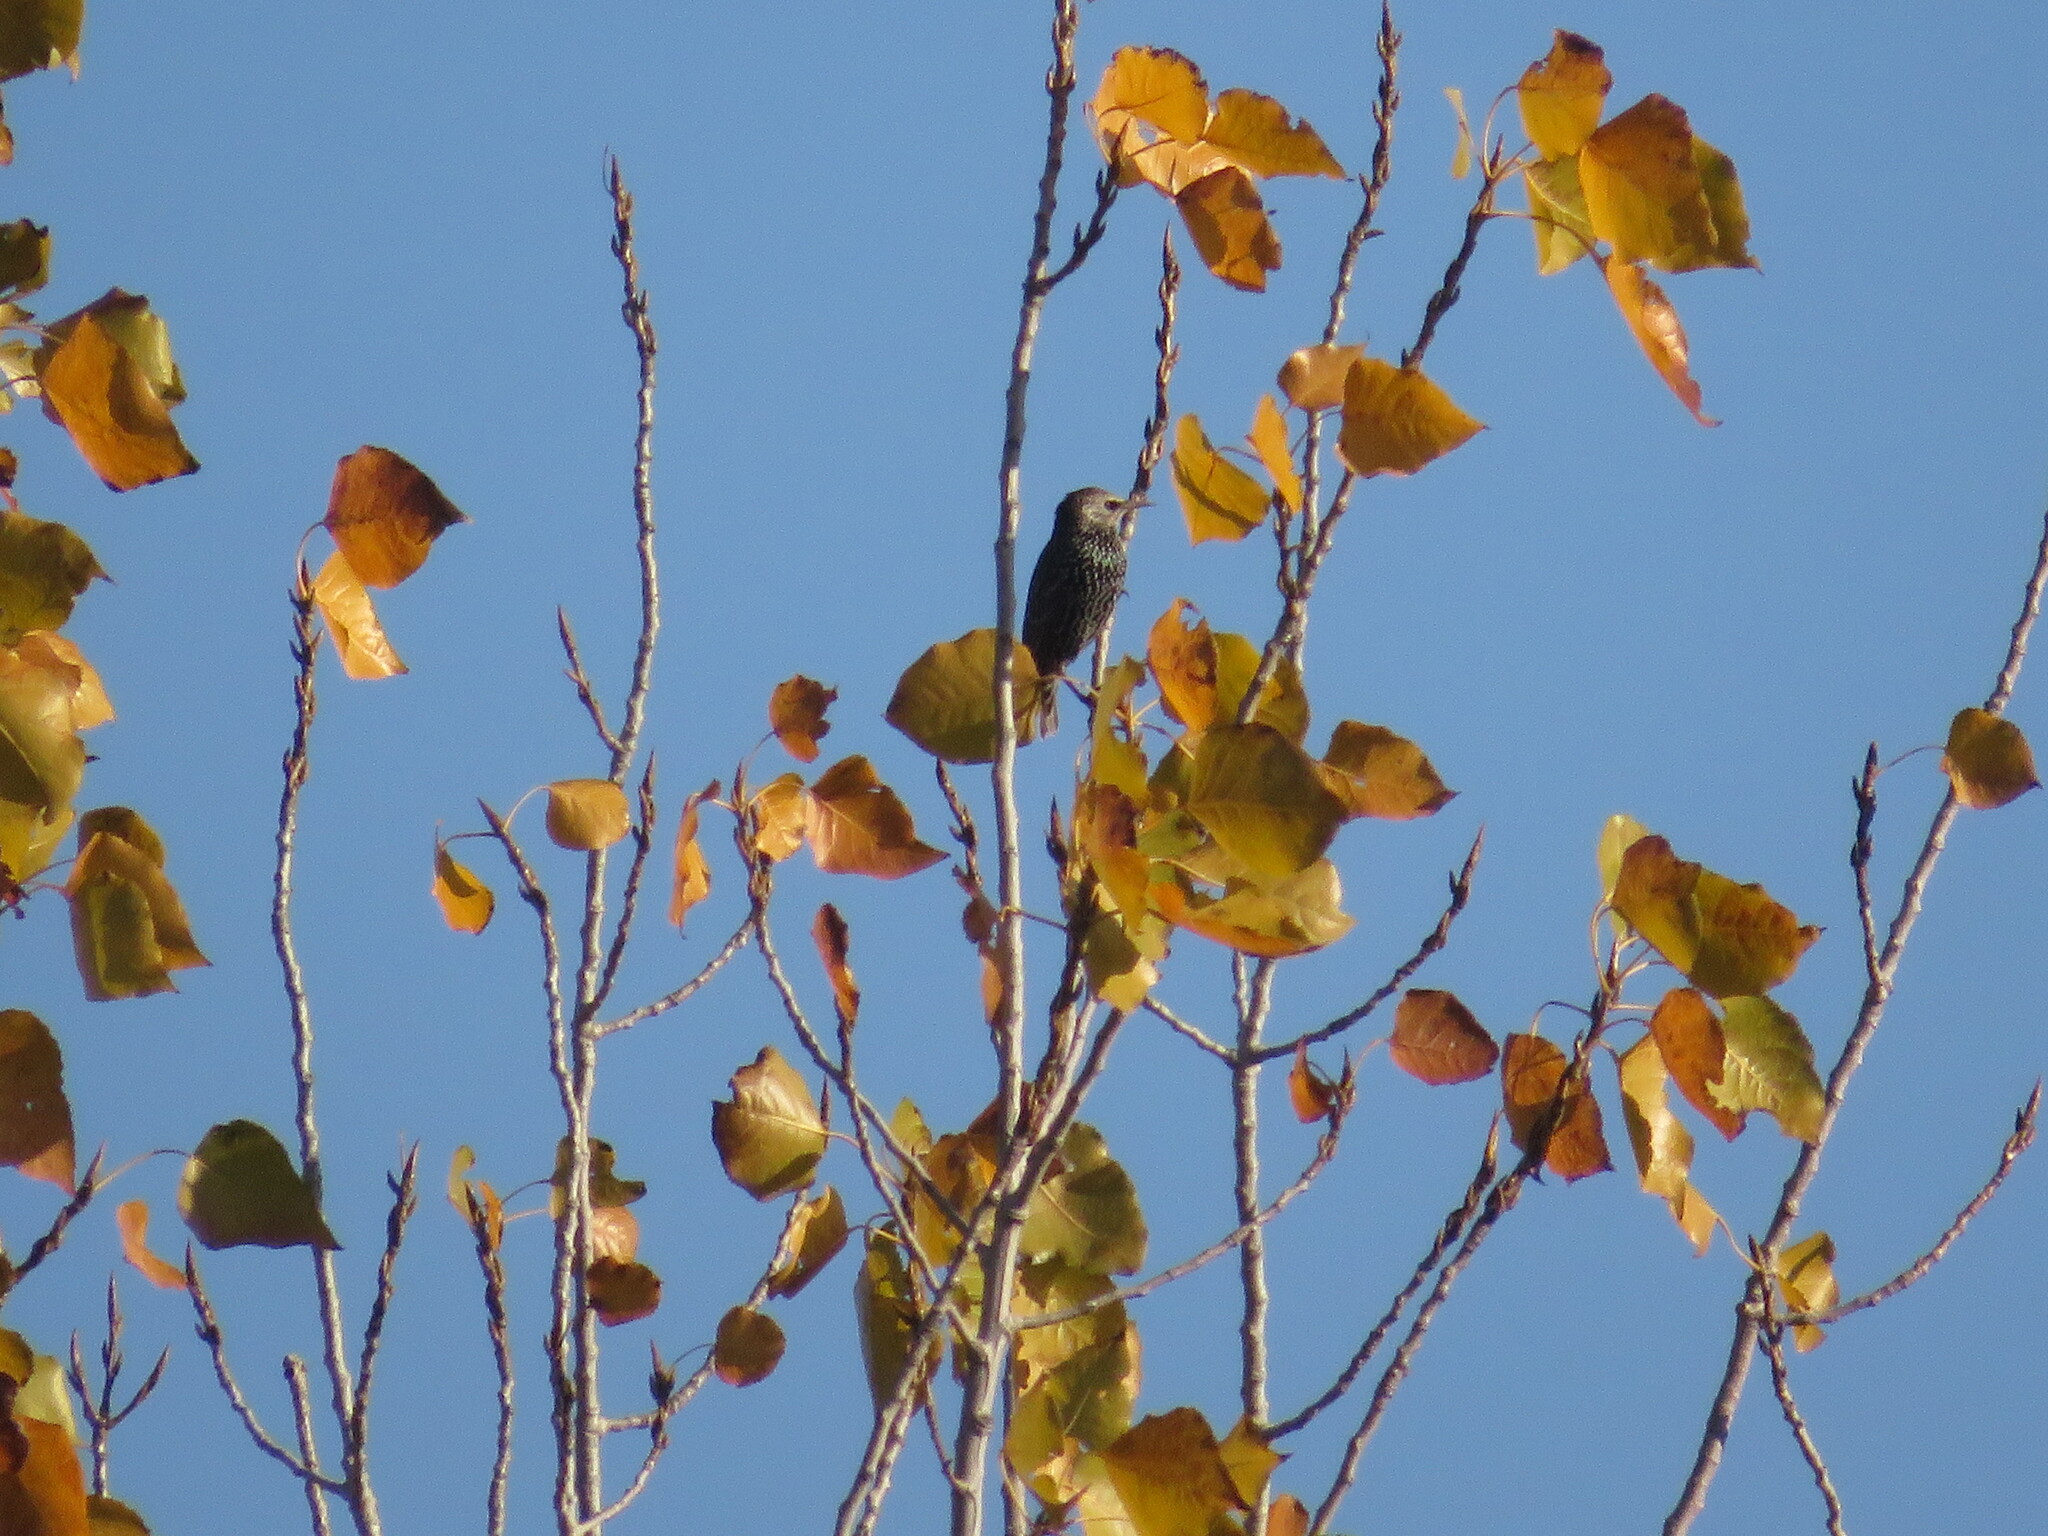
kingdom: Animalia
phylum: Chordata
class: Aves
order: Passeriformes
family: Sturnidae
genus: Sturnus
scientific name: Sturnus vulgaris
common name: Common starling
